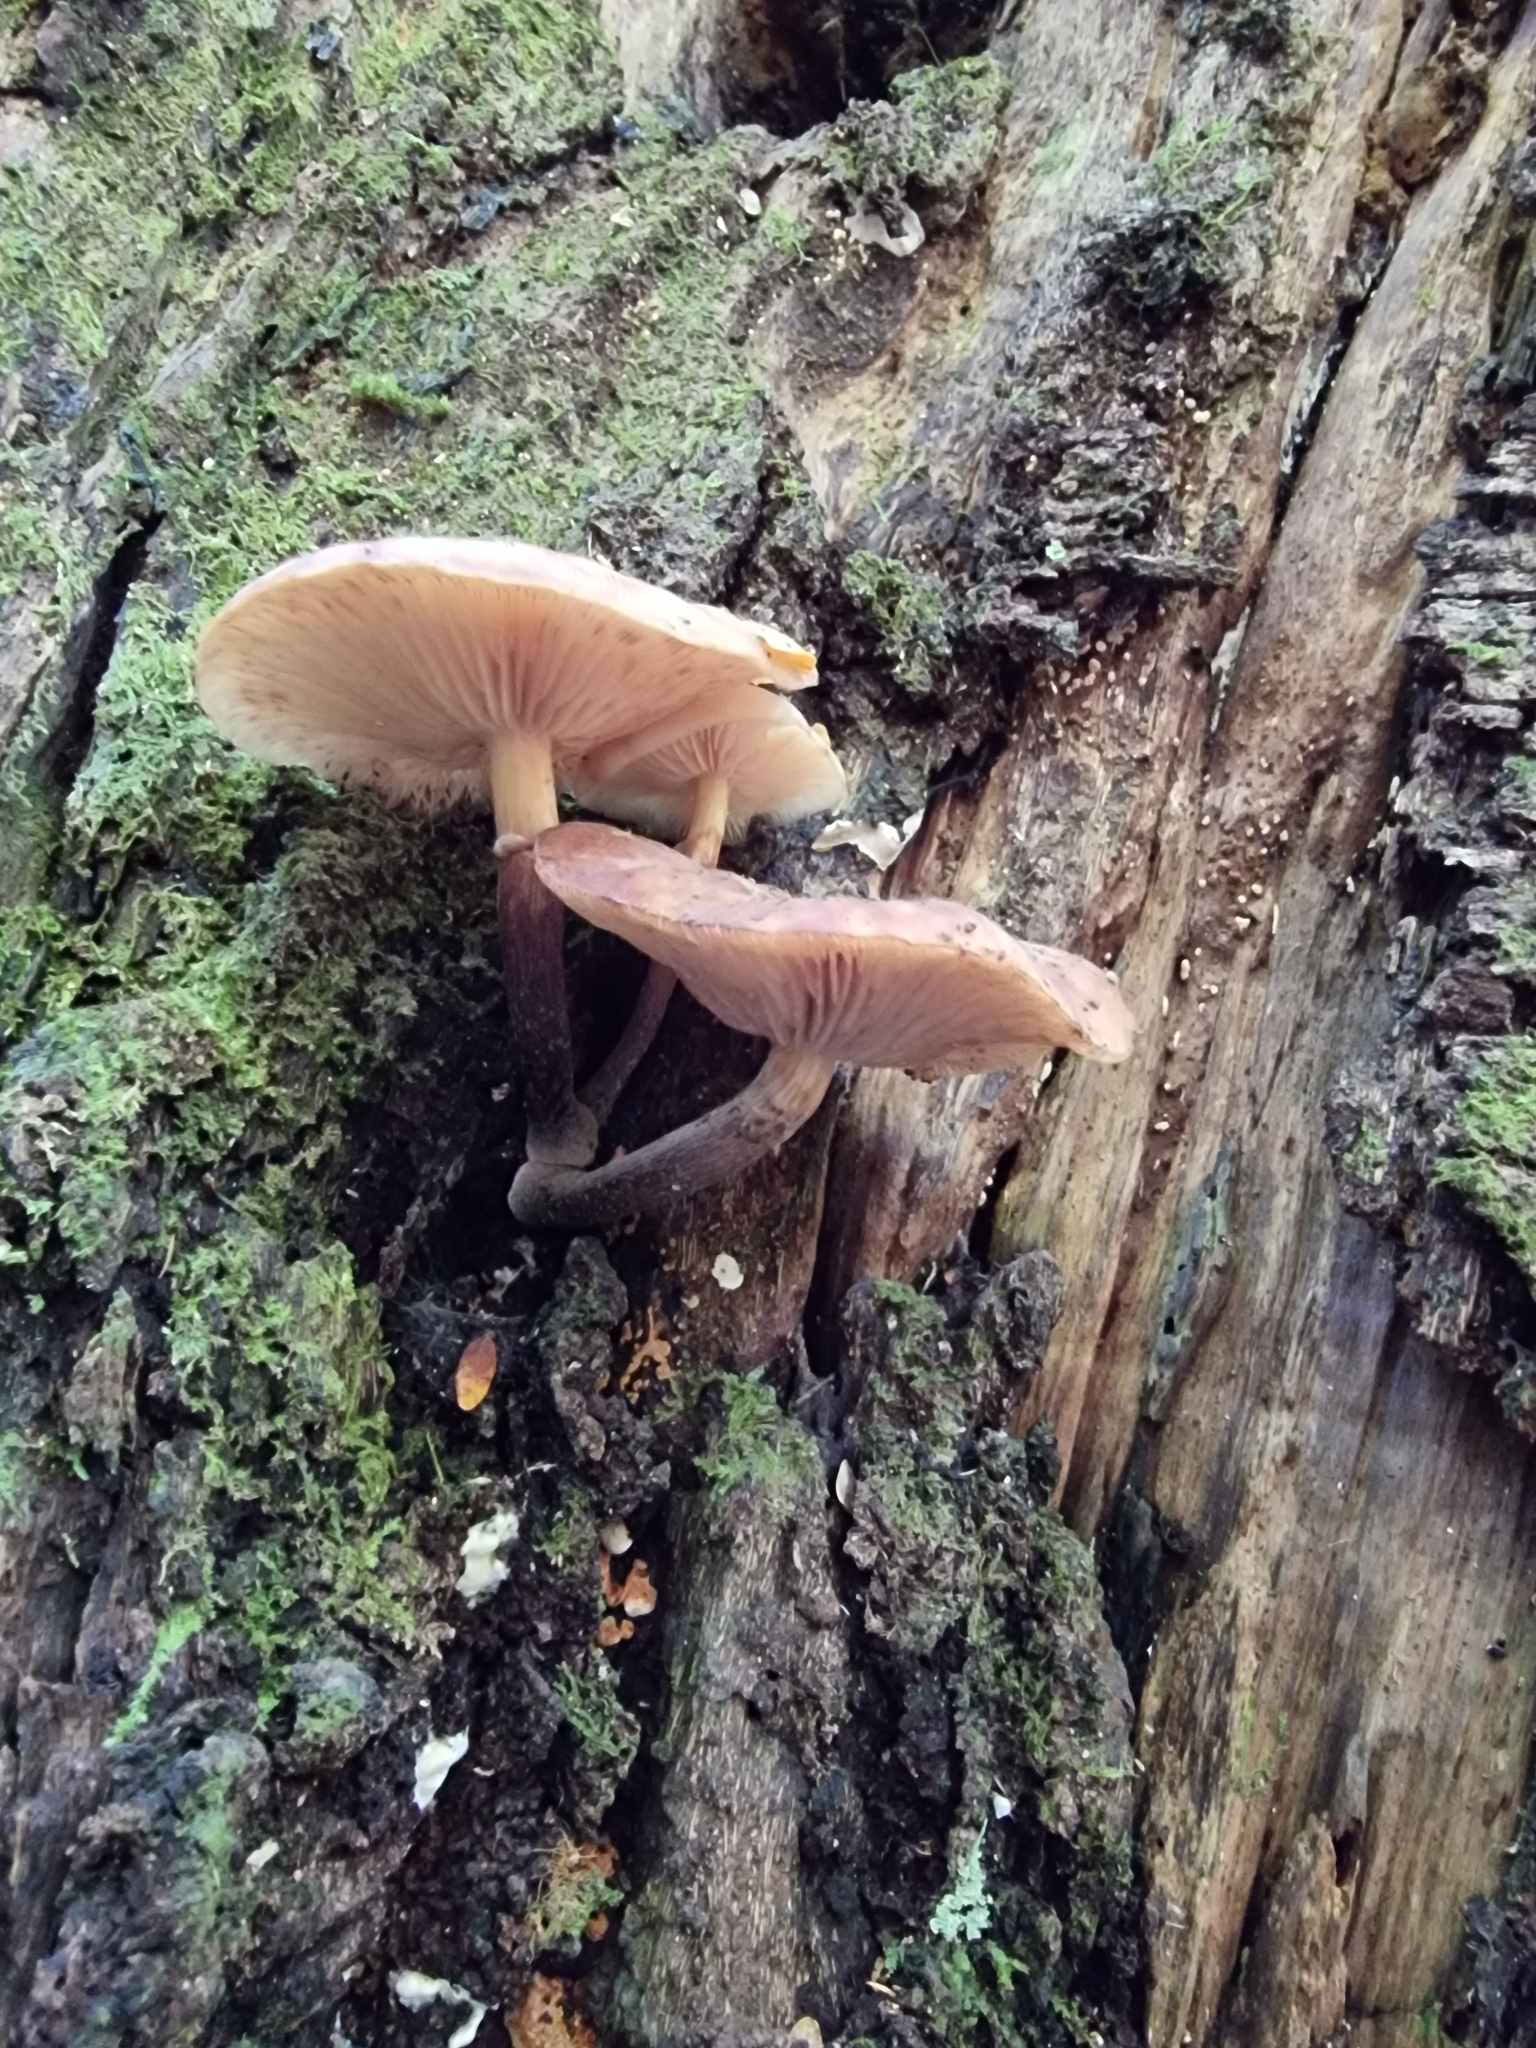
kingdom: Fungi
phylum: Basidiomycota
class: Agaricomycetes
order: Agaricales
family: Physalacriaceae
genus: Armillaria
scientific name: Armillaria novae-zelandiae
